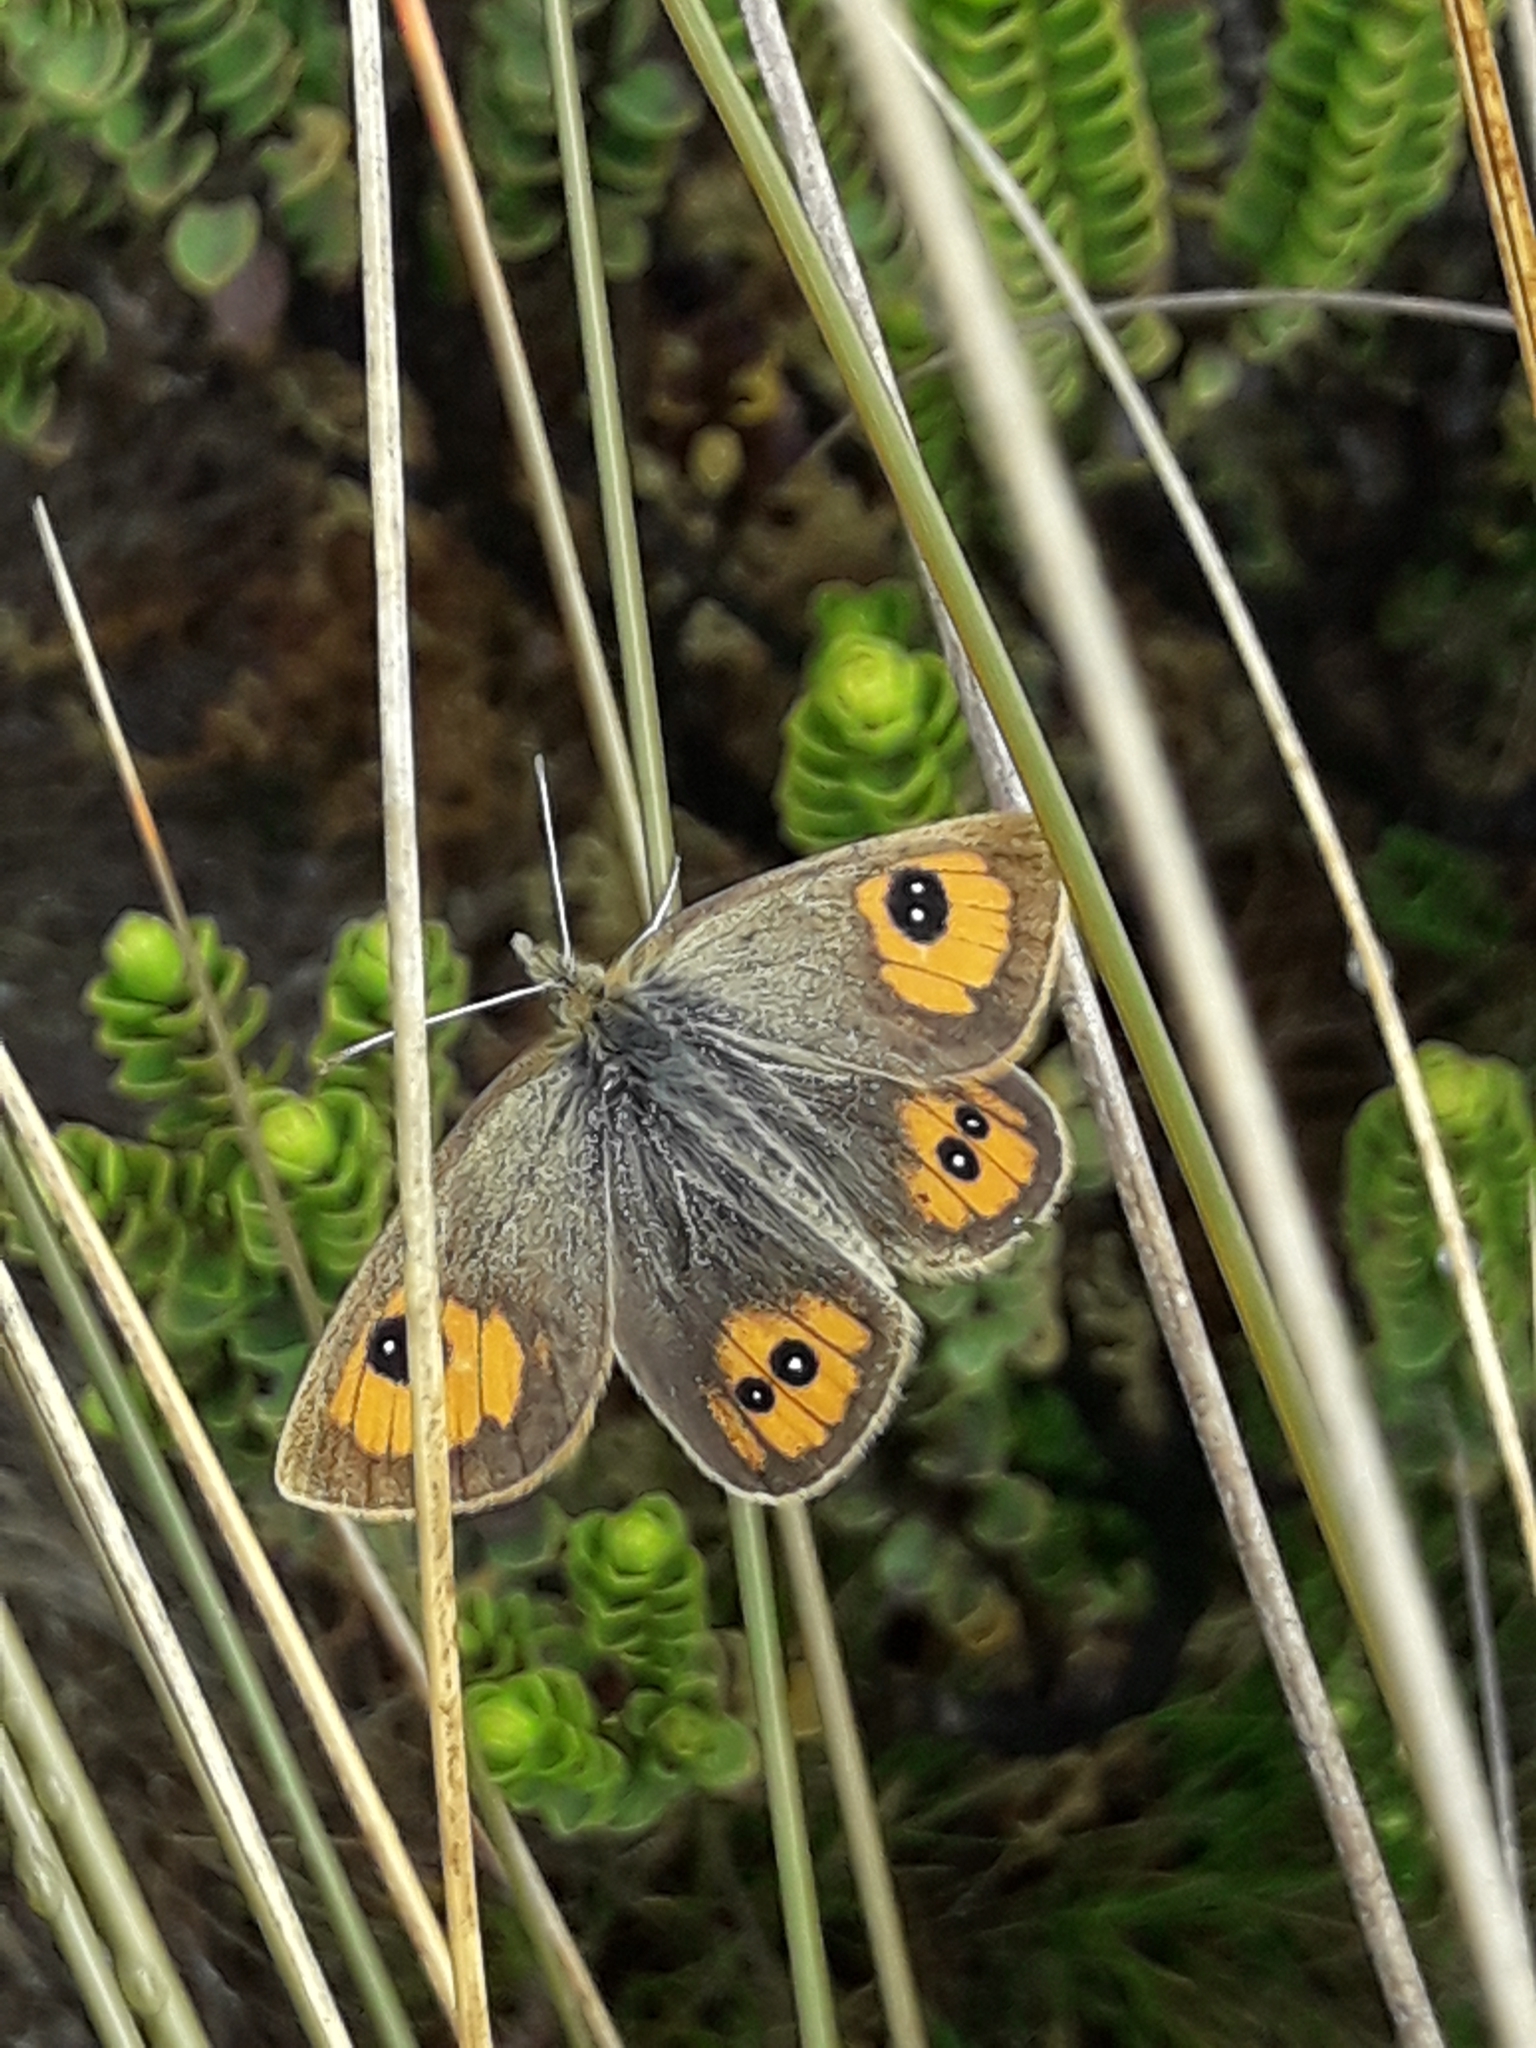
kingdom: Animalia
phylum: Arthropoda
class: Insecta
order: Lepidoptera
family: Nymphalidae
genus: Argyrophenga
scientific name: Argyrophenga janitae
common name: Janita's tussock
